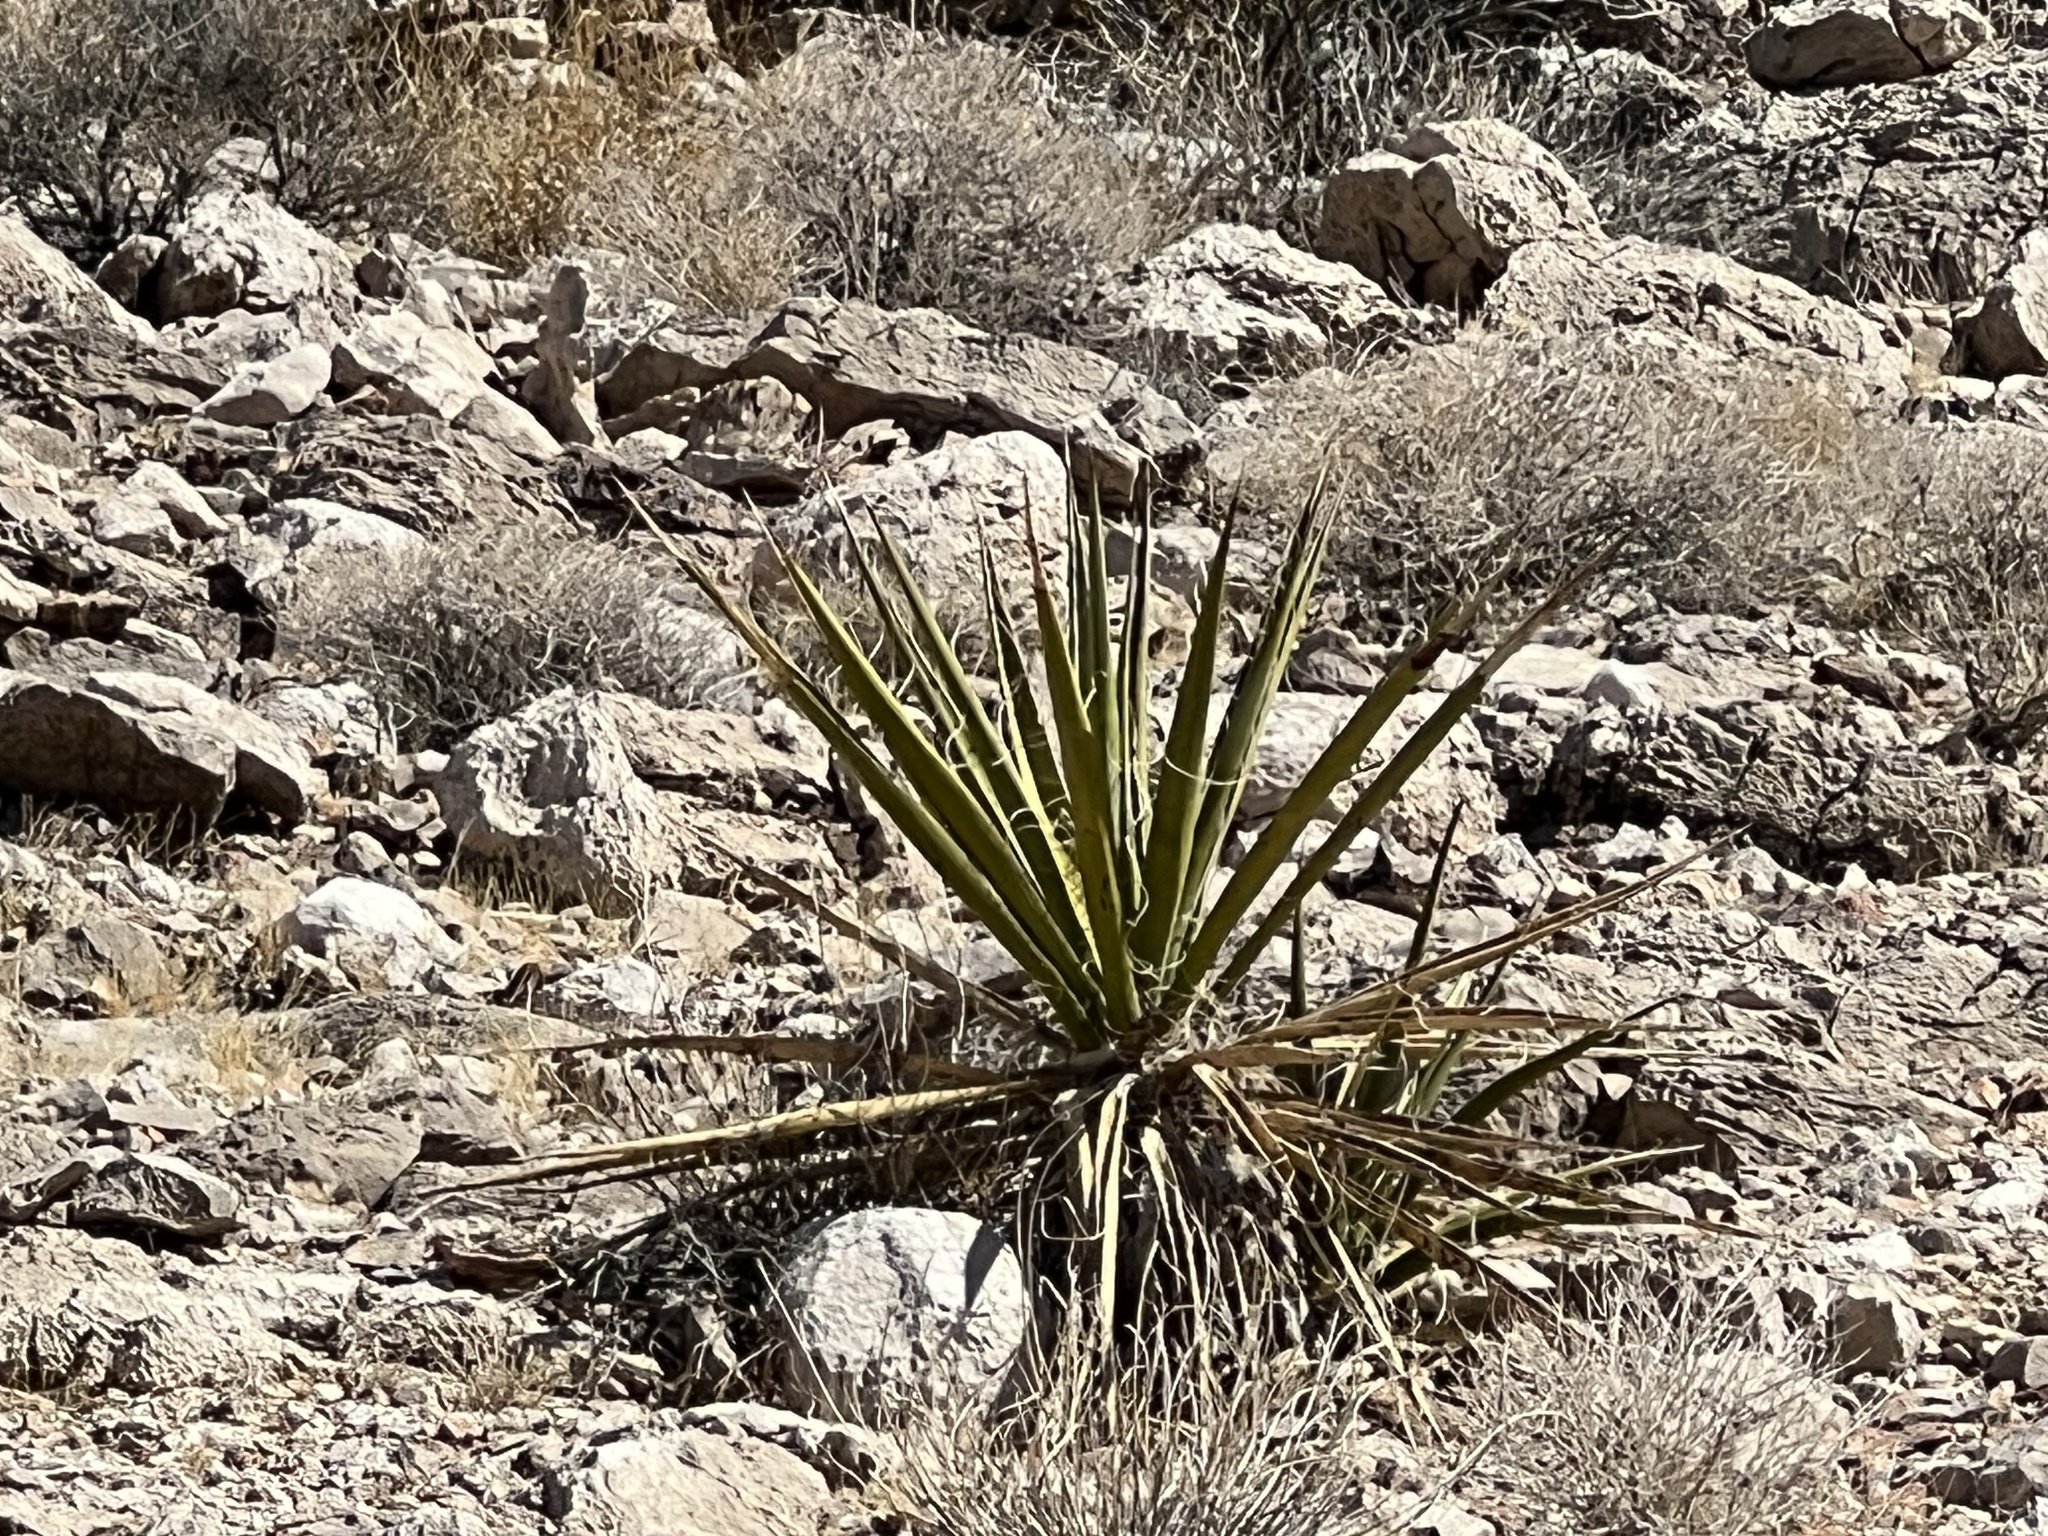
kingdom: Plantae
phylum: Tracheophyta
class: Liliopsida
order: Asparagales
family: Asparagaceae
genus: Yucca
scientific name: Yucca schidigera
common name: Mojave yucca
